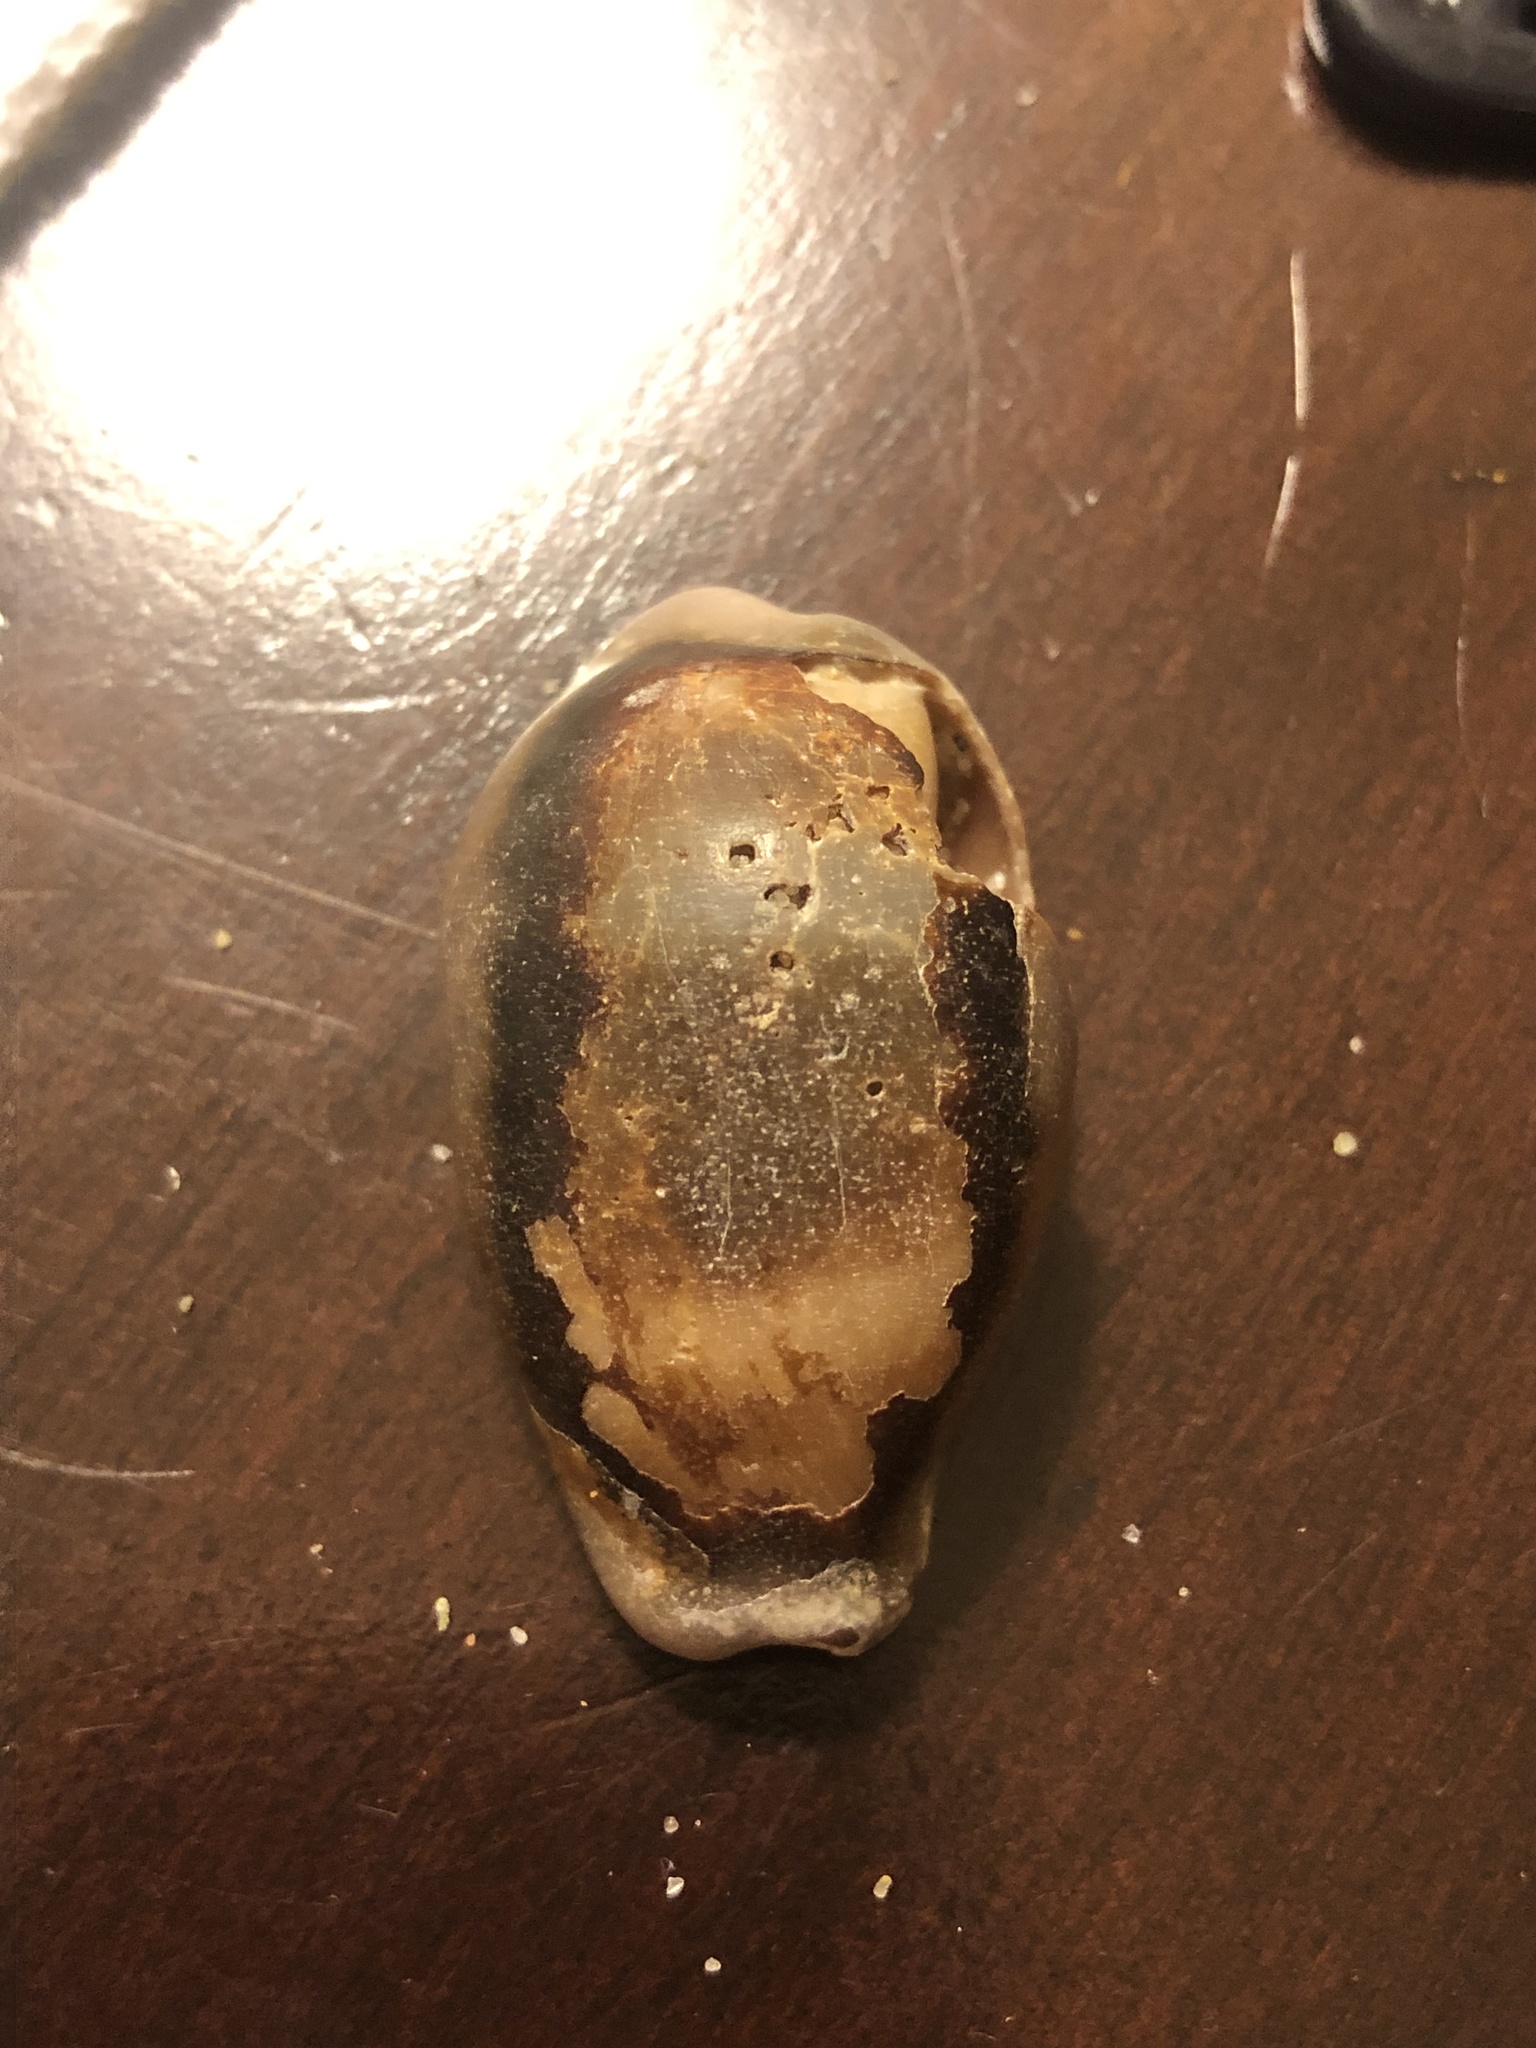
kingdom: Animalia
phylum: Mollusca
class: Gastropoda
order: Littorinimorpha
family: Cypraeidae
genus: Neobernaya
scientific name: Neobernaya spadicea
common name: Chestnut cowrie
